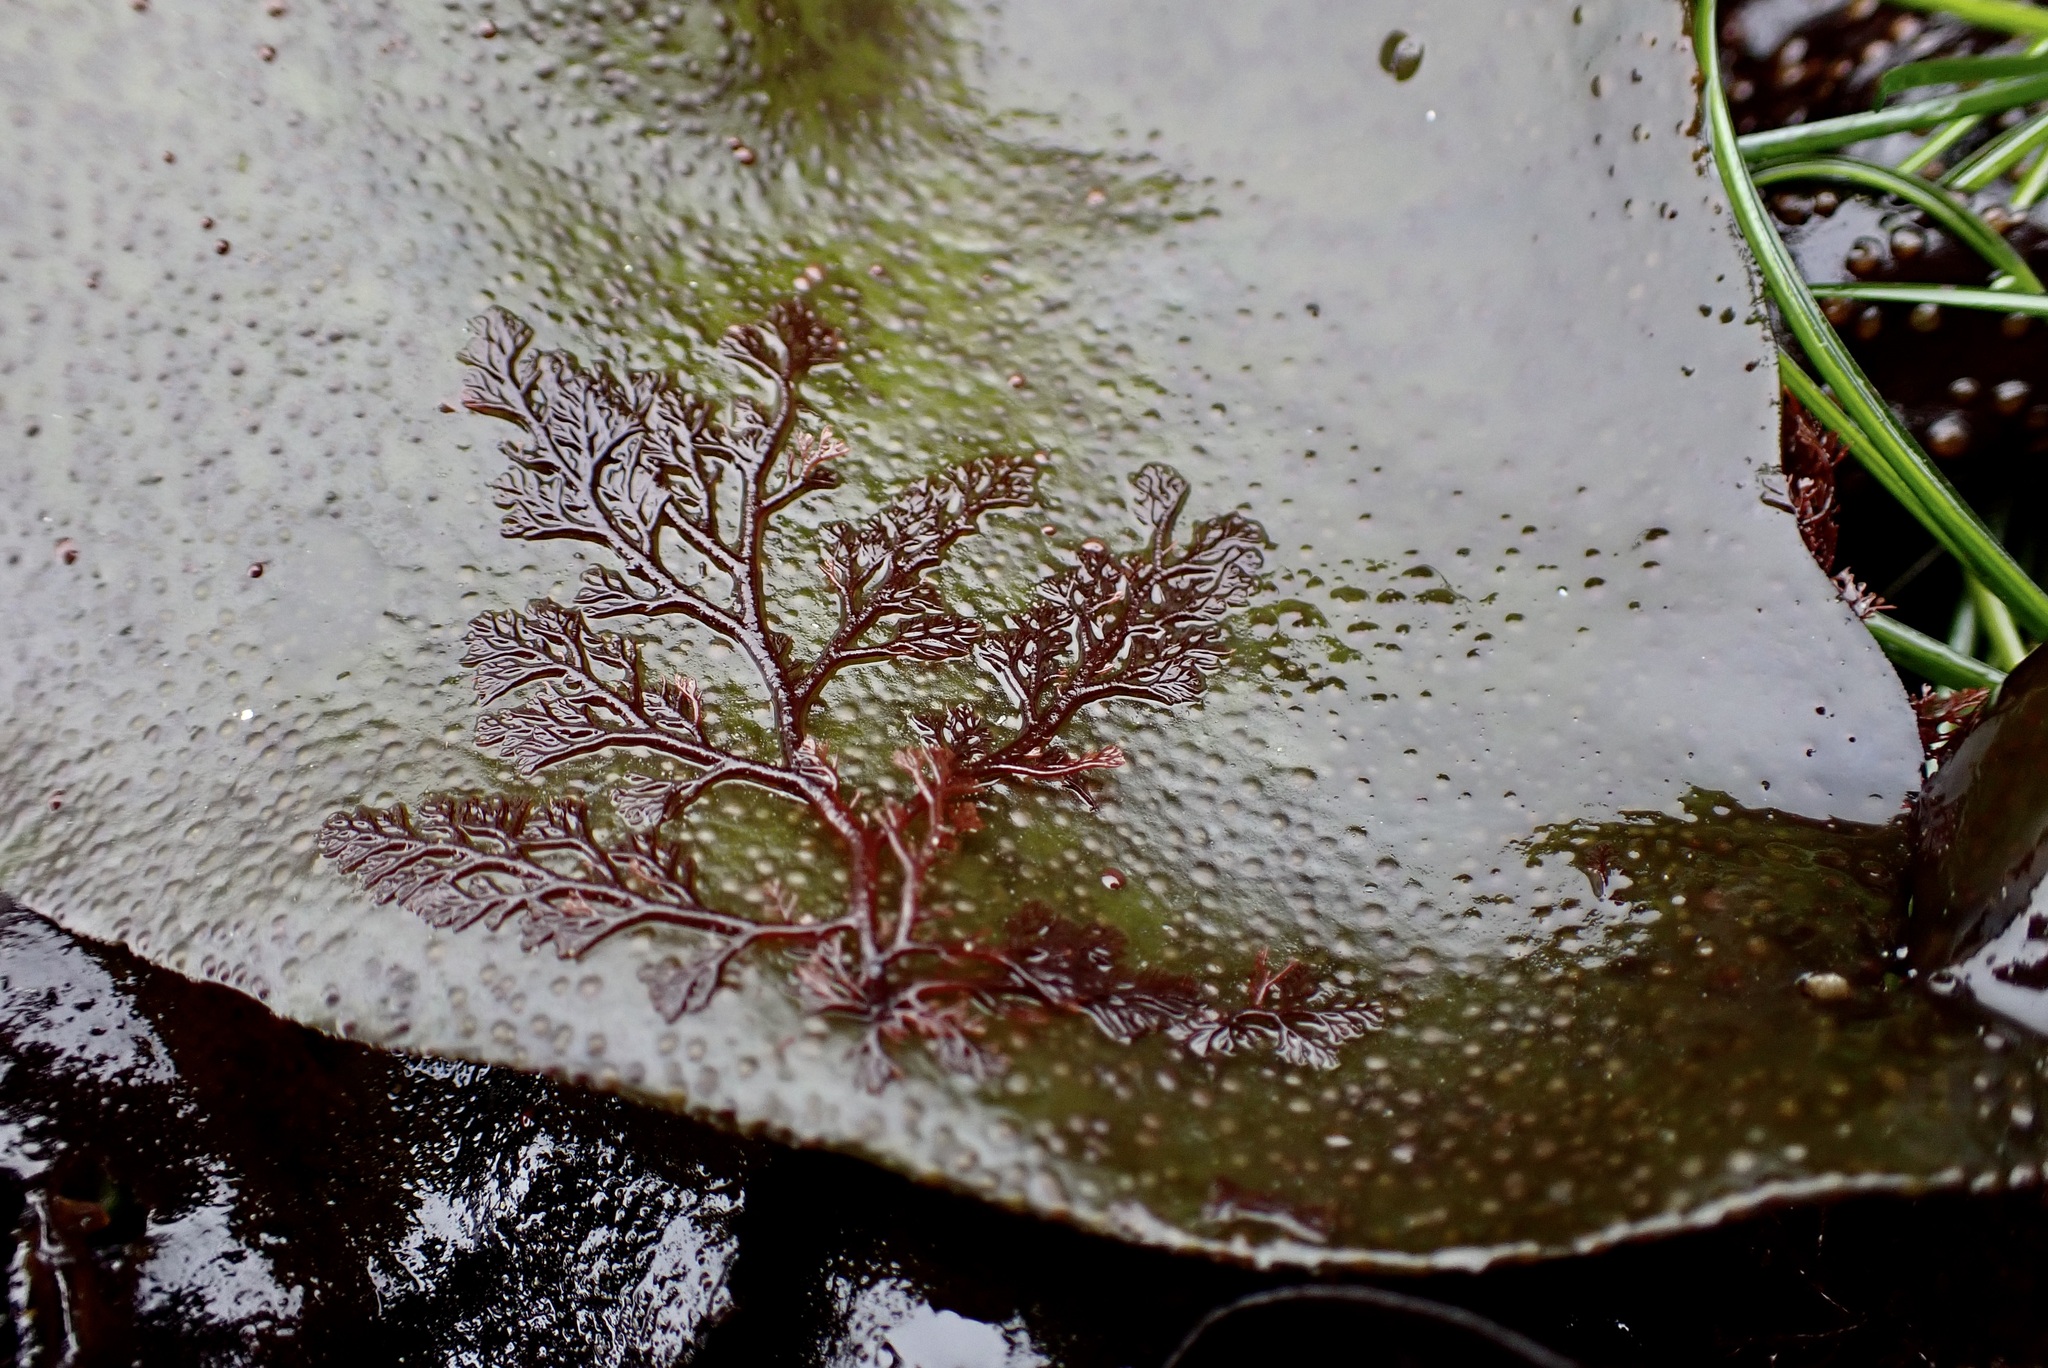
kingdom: Plantae
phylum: Rhodophyta
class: Florideophyceae
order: Ceramiales
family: Ceramiaceae
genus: Microcladia
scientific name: Microcladia coulteri
